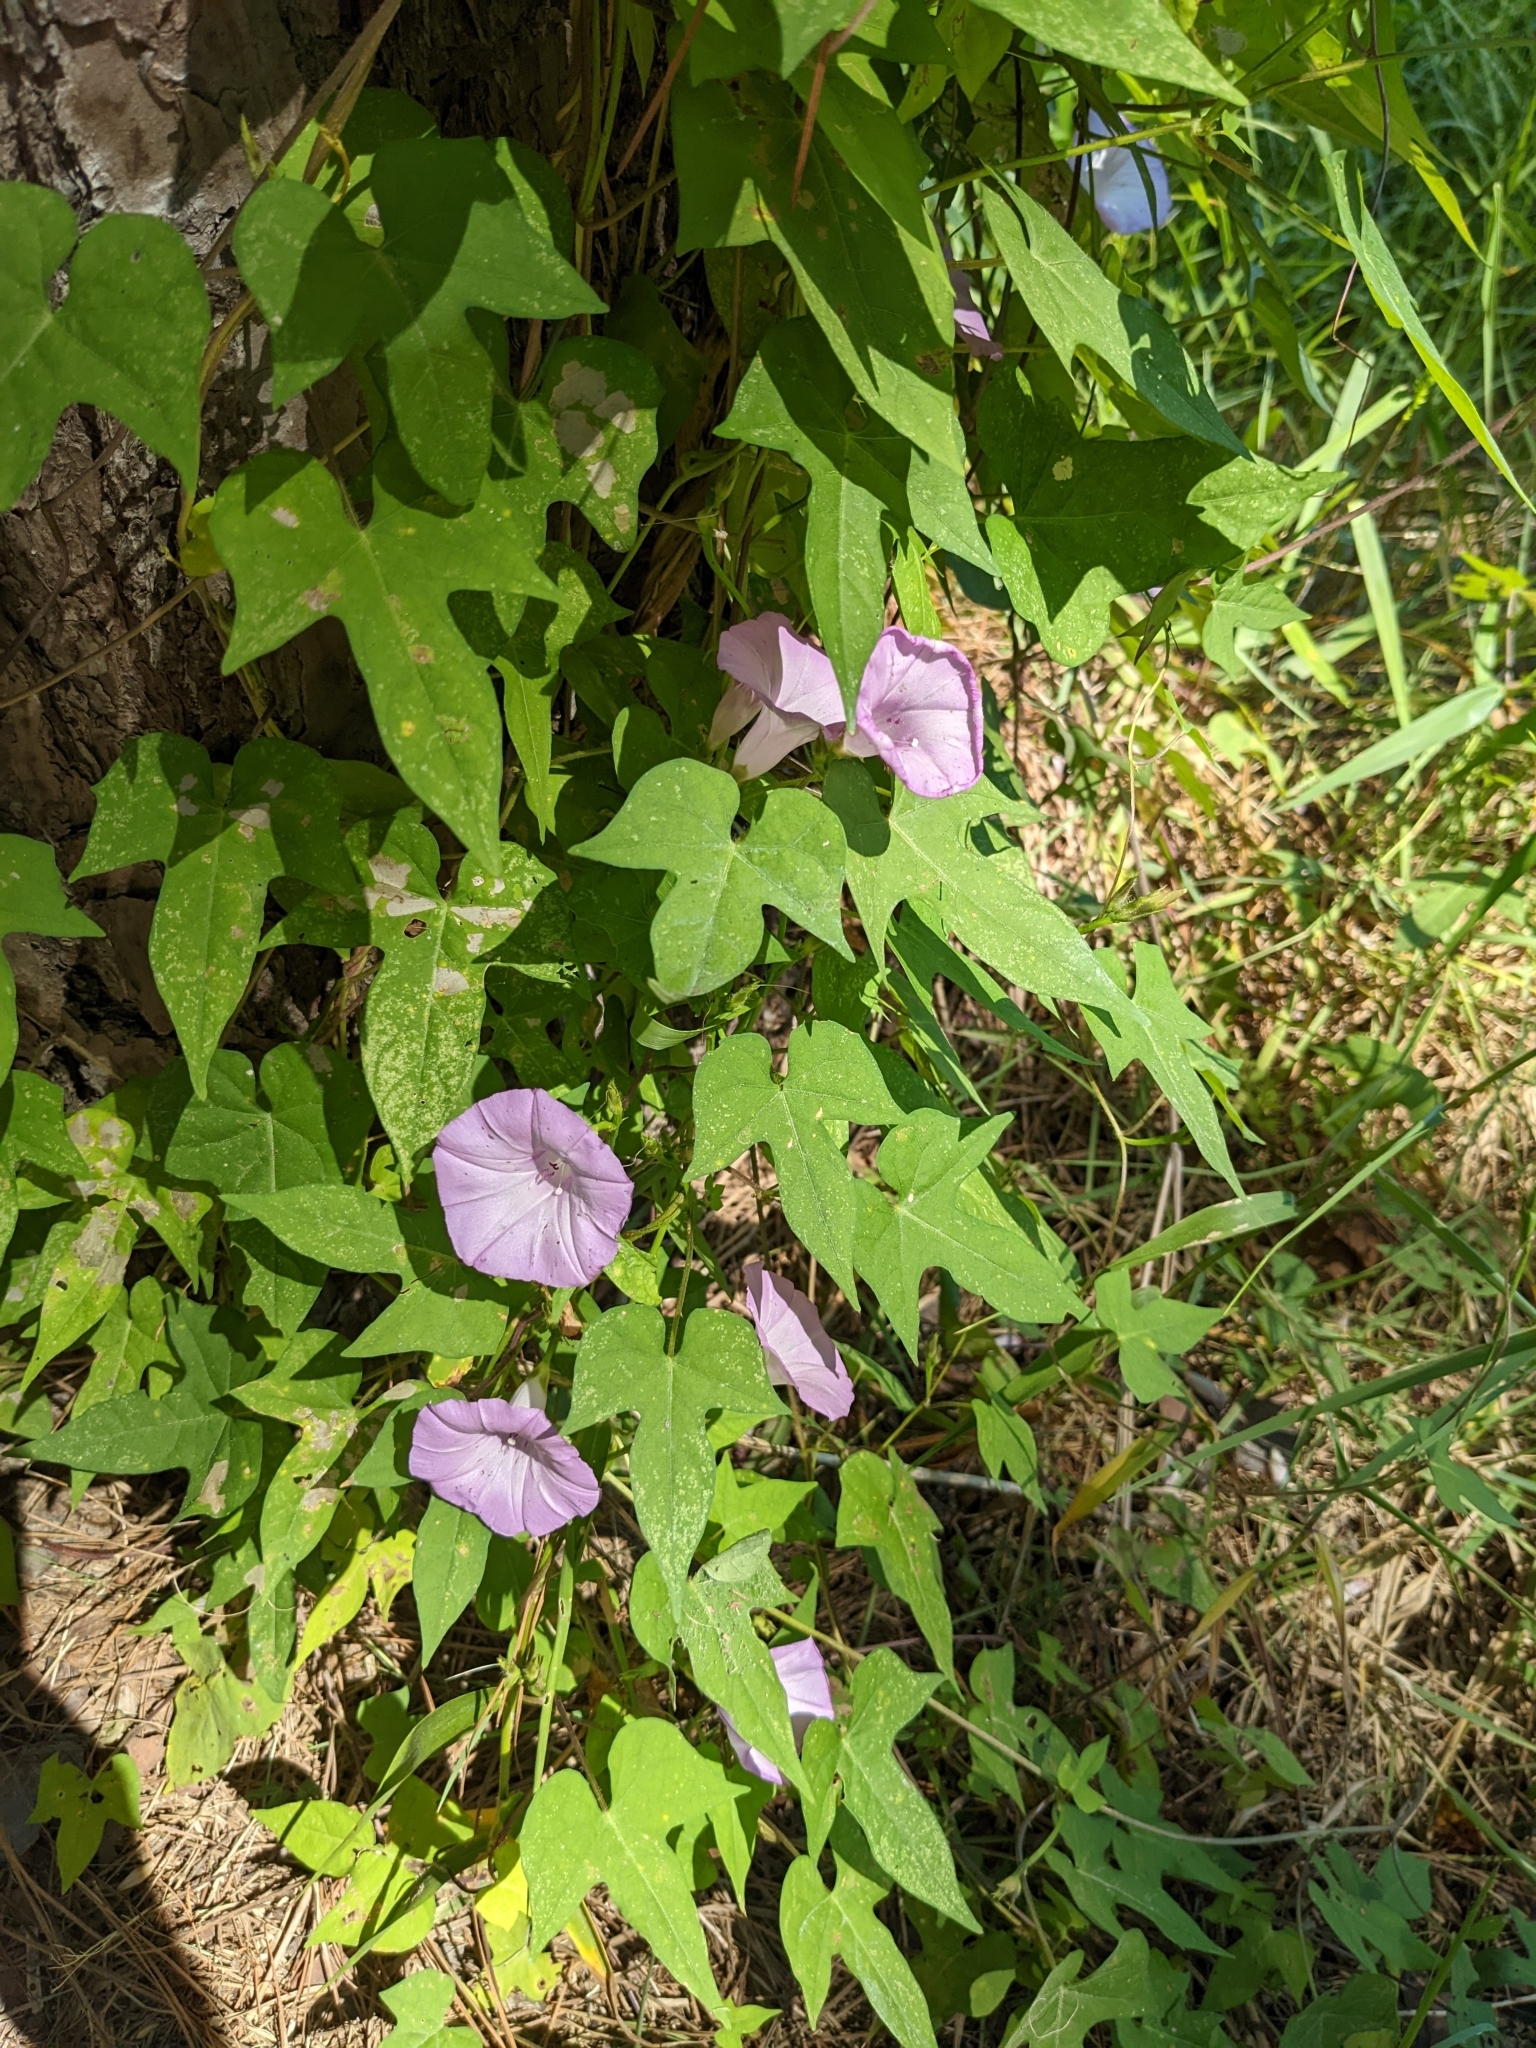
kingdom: Plantae
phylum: Tracheophyta
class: Magnoliopsida
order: Solanales
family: Convolvulaceae
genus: Ipomoea
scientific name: Ipomoea cordatotriloba
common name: Cotton morning glory
